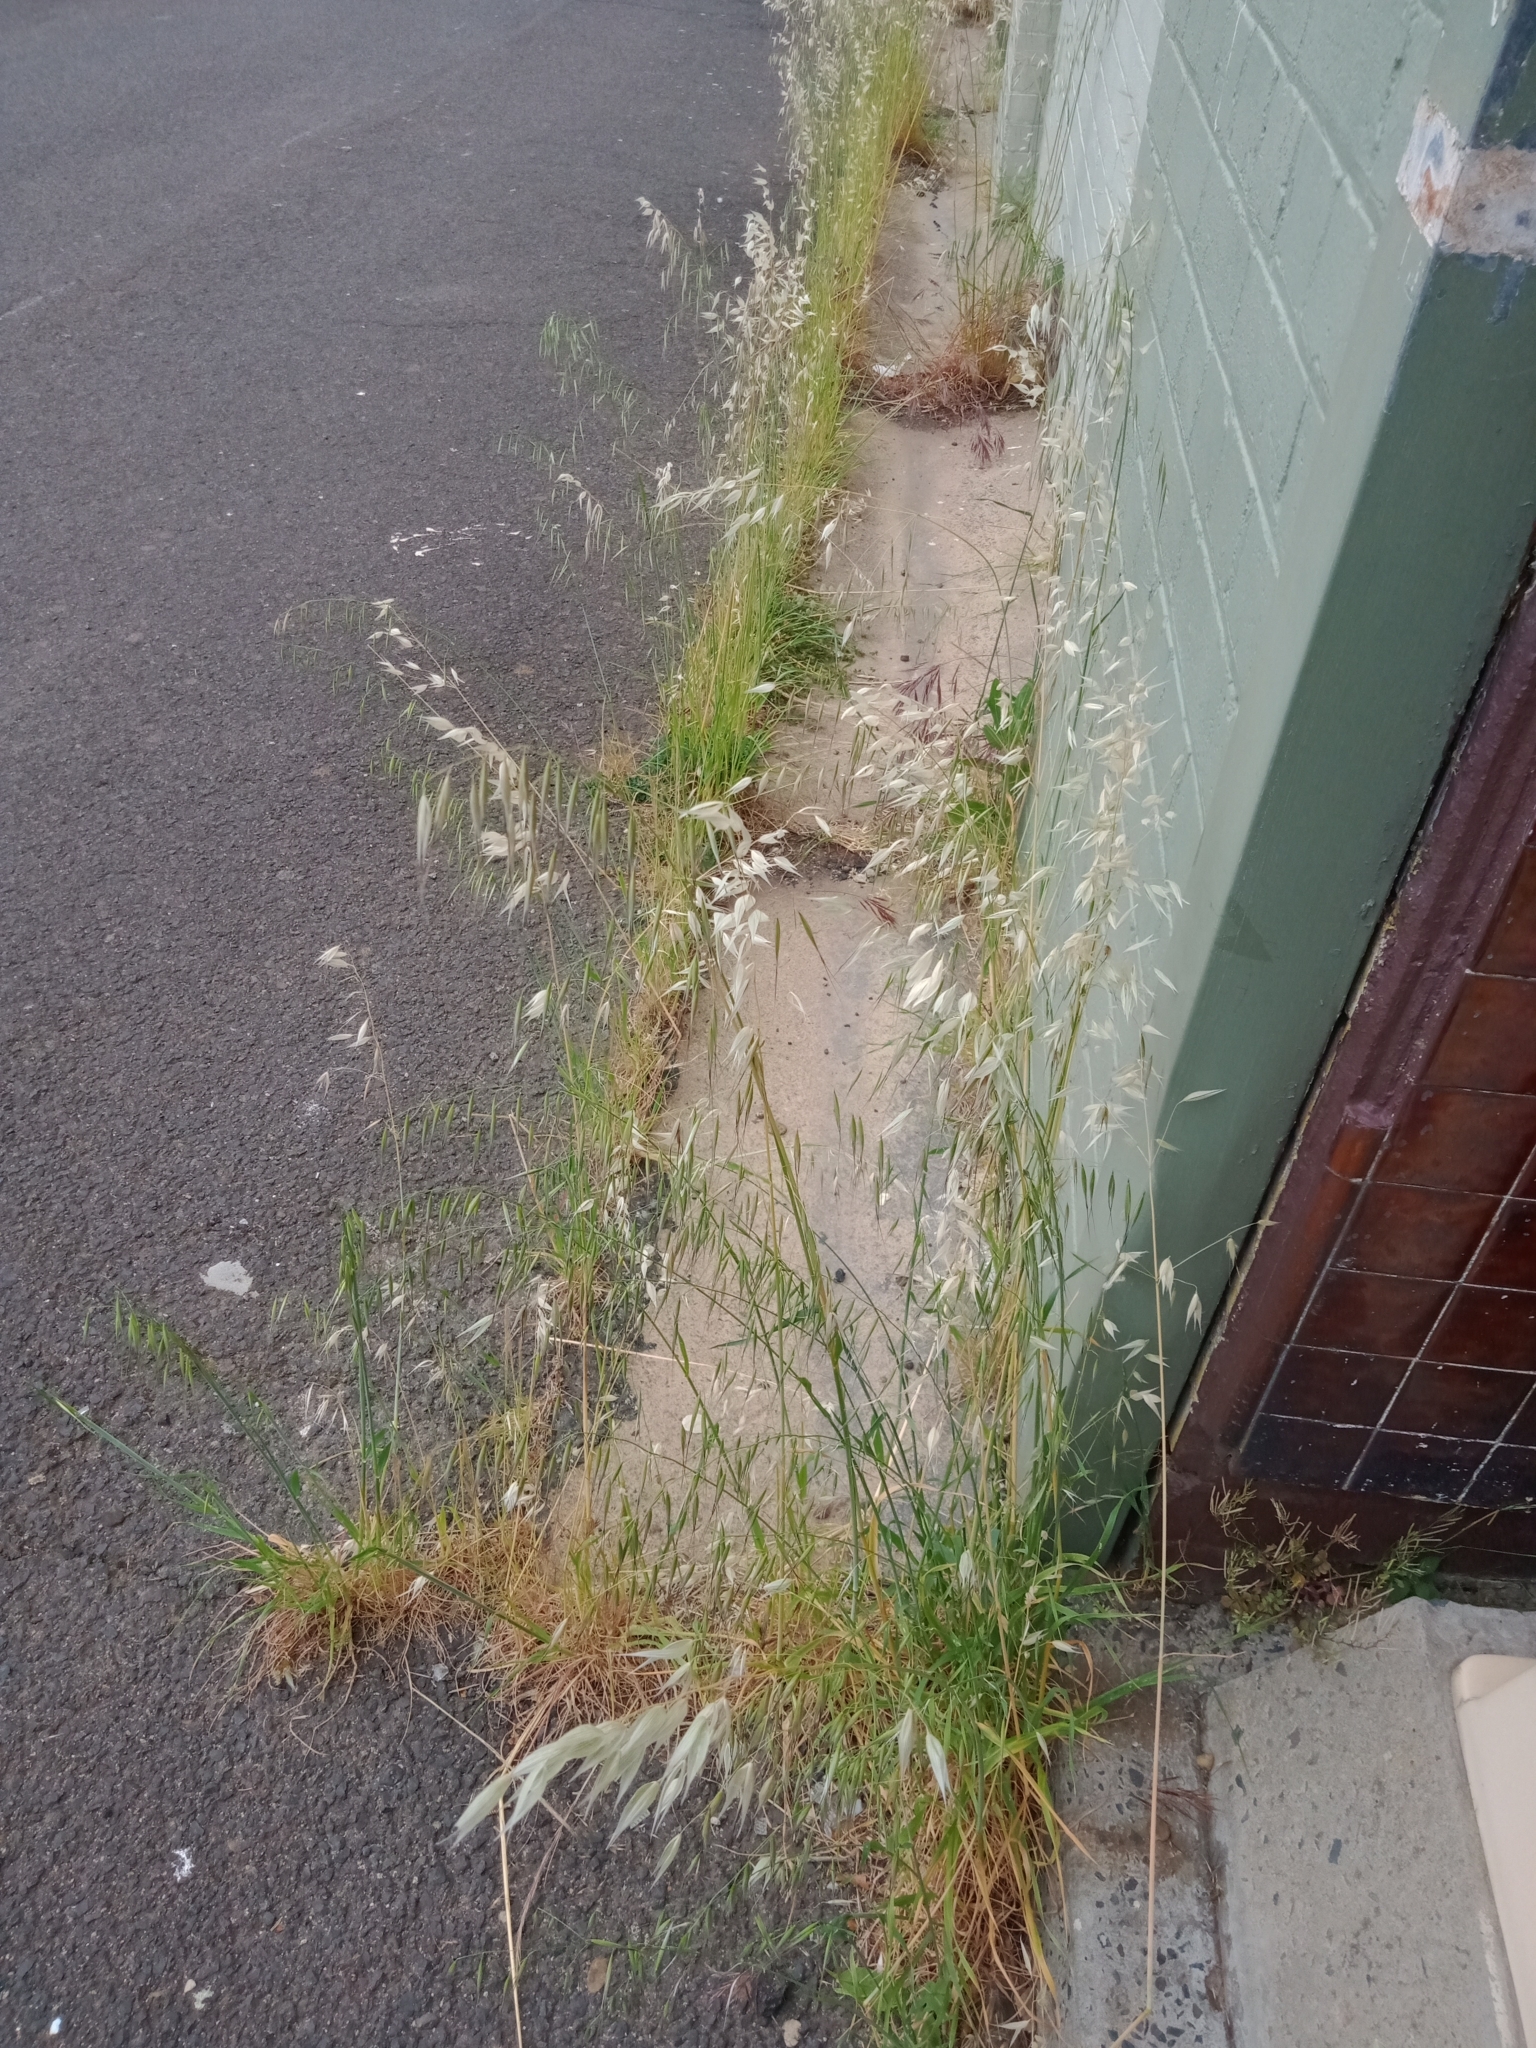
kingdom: Plantae
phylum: Tracheophyta
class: Liliopsida
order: Poales
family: Poaceae
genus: Avena
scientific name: Avena fatua
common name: Wild oat
